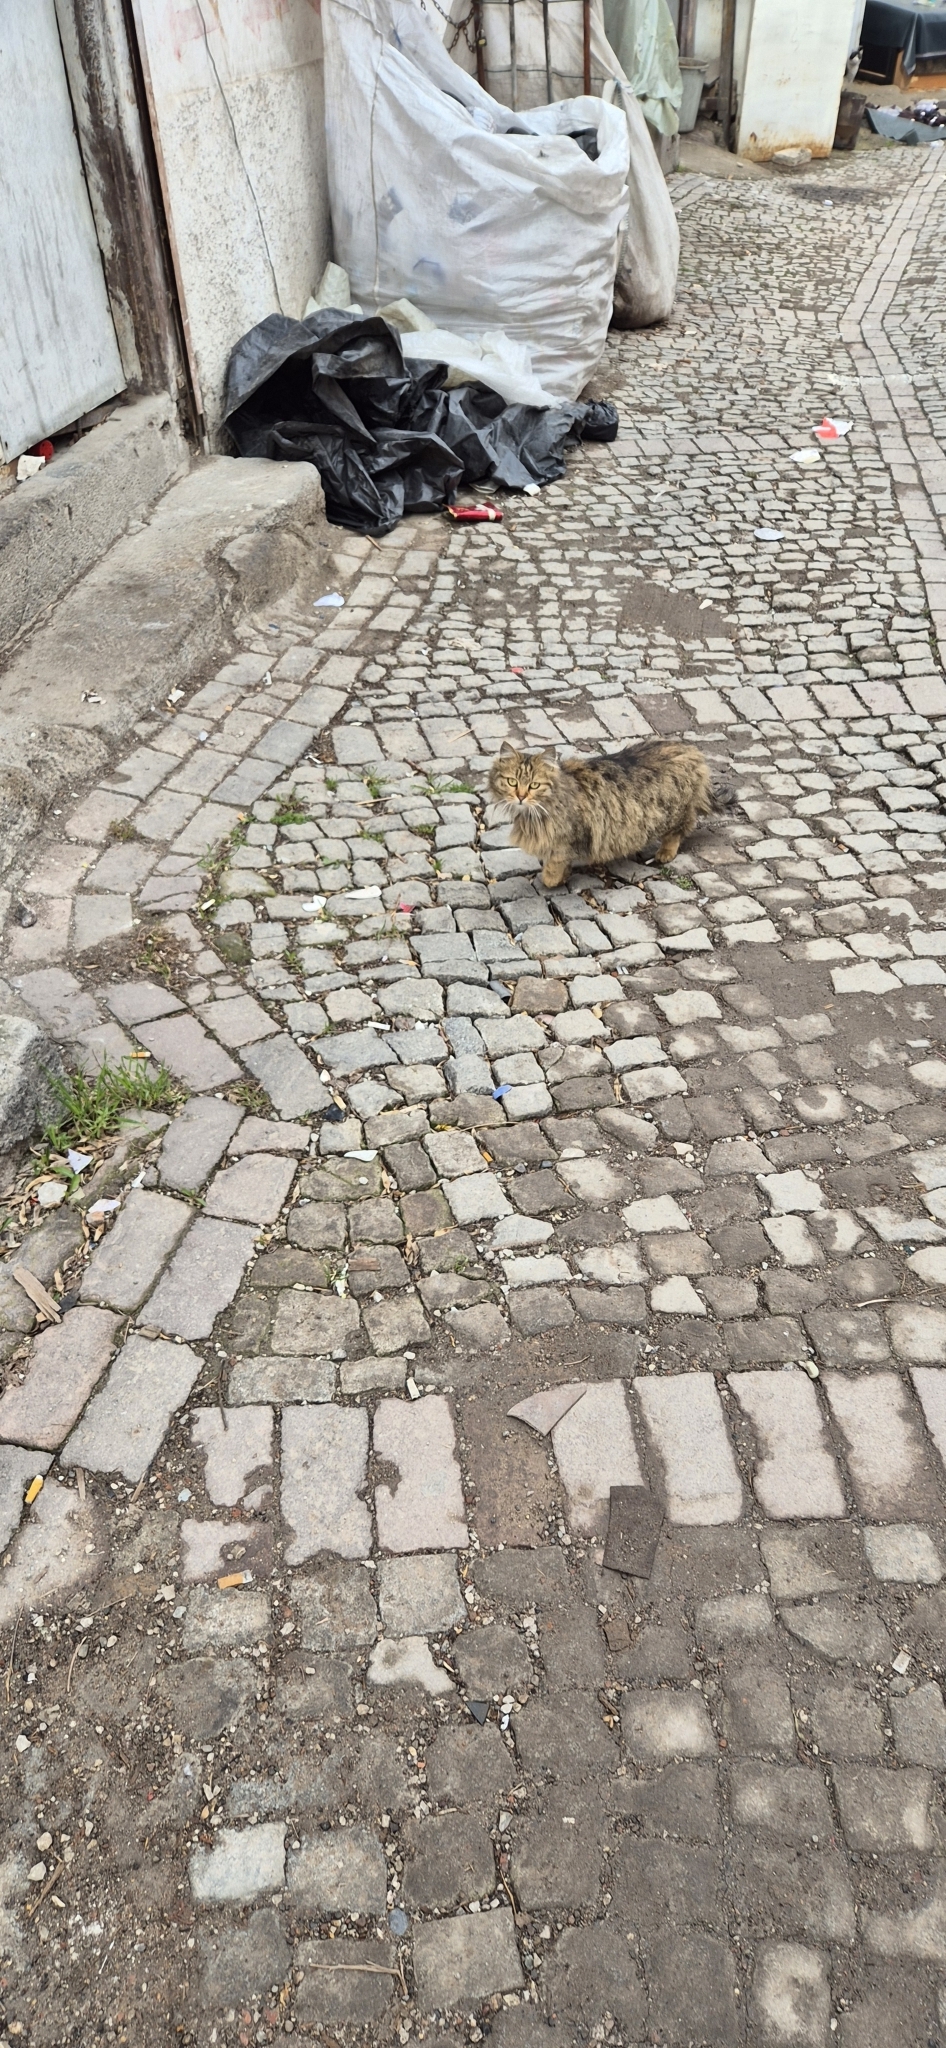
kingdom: Animalia
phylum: Chordata
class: Mammalia
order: Carnivora
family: Felidae
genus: Felis
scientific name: Felis catus
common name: Domestic cat
